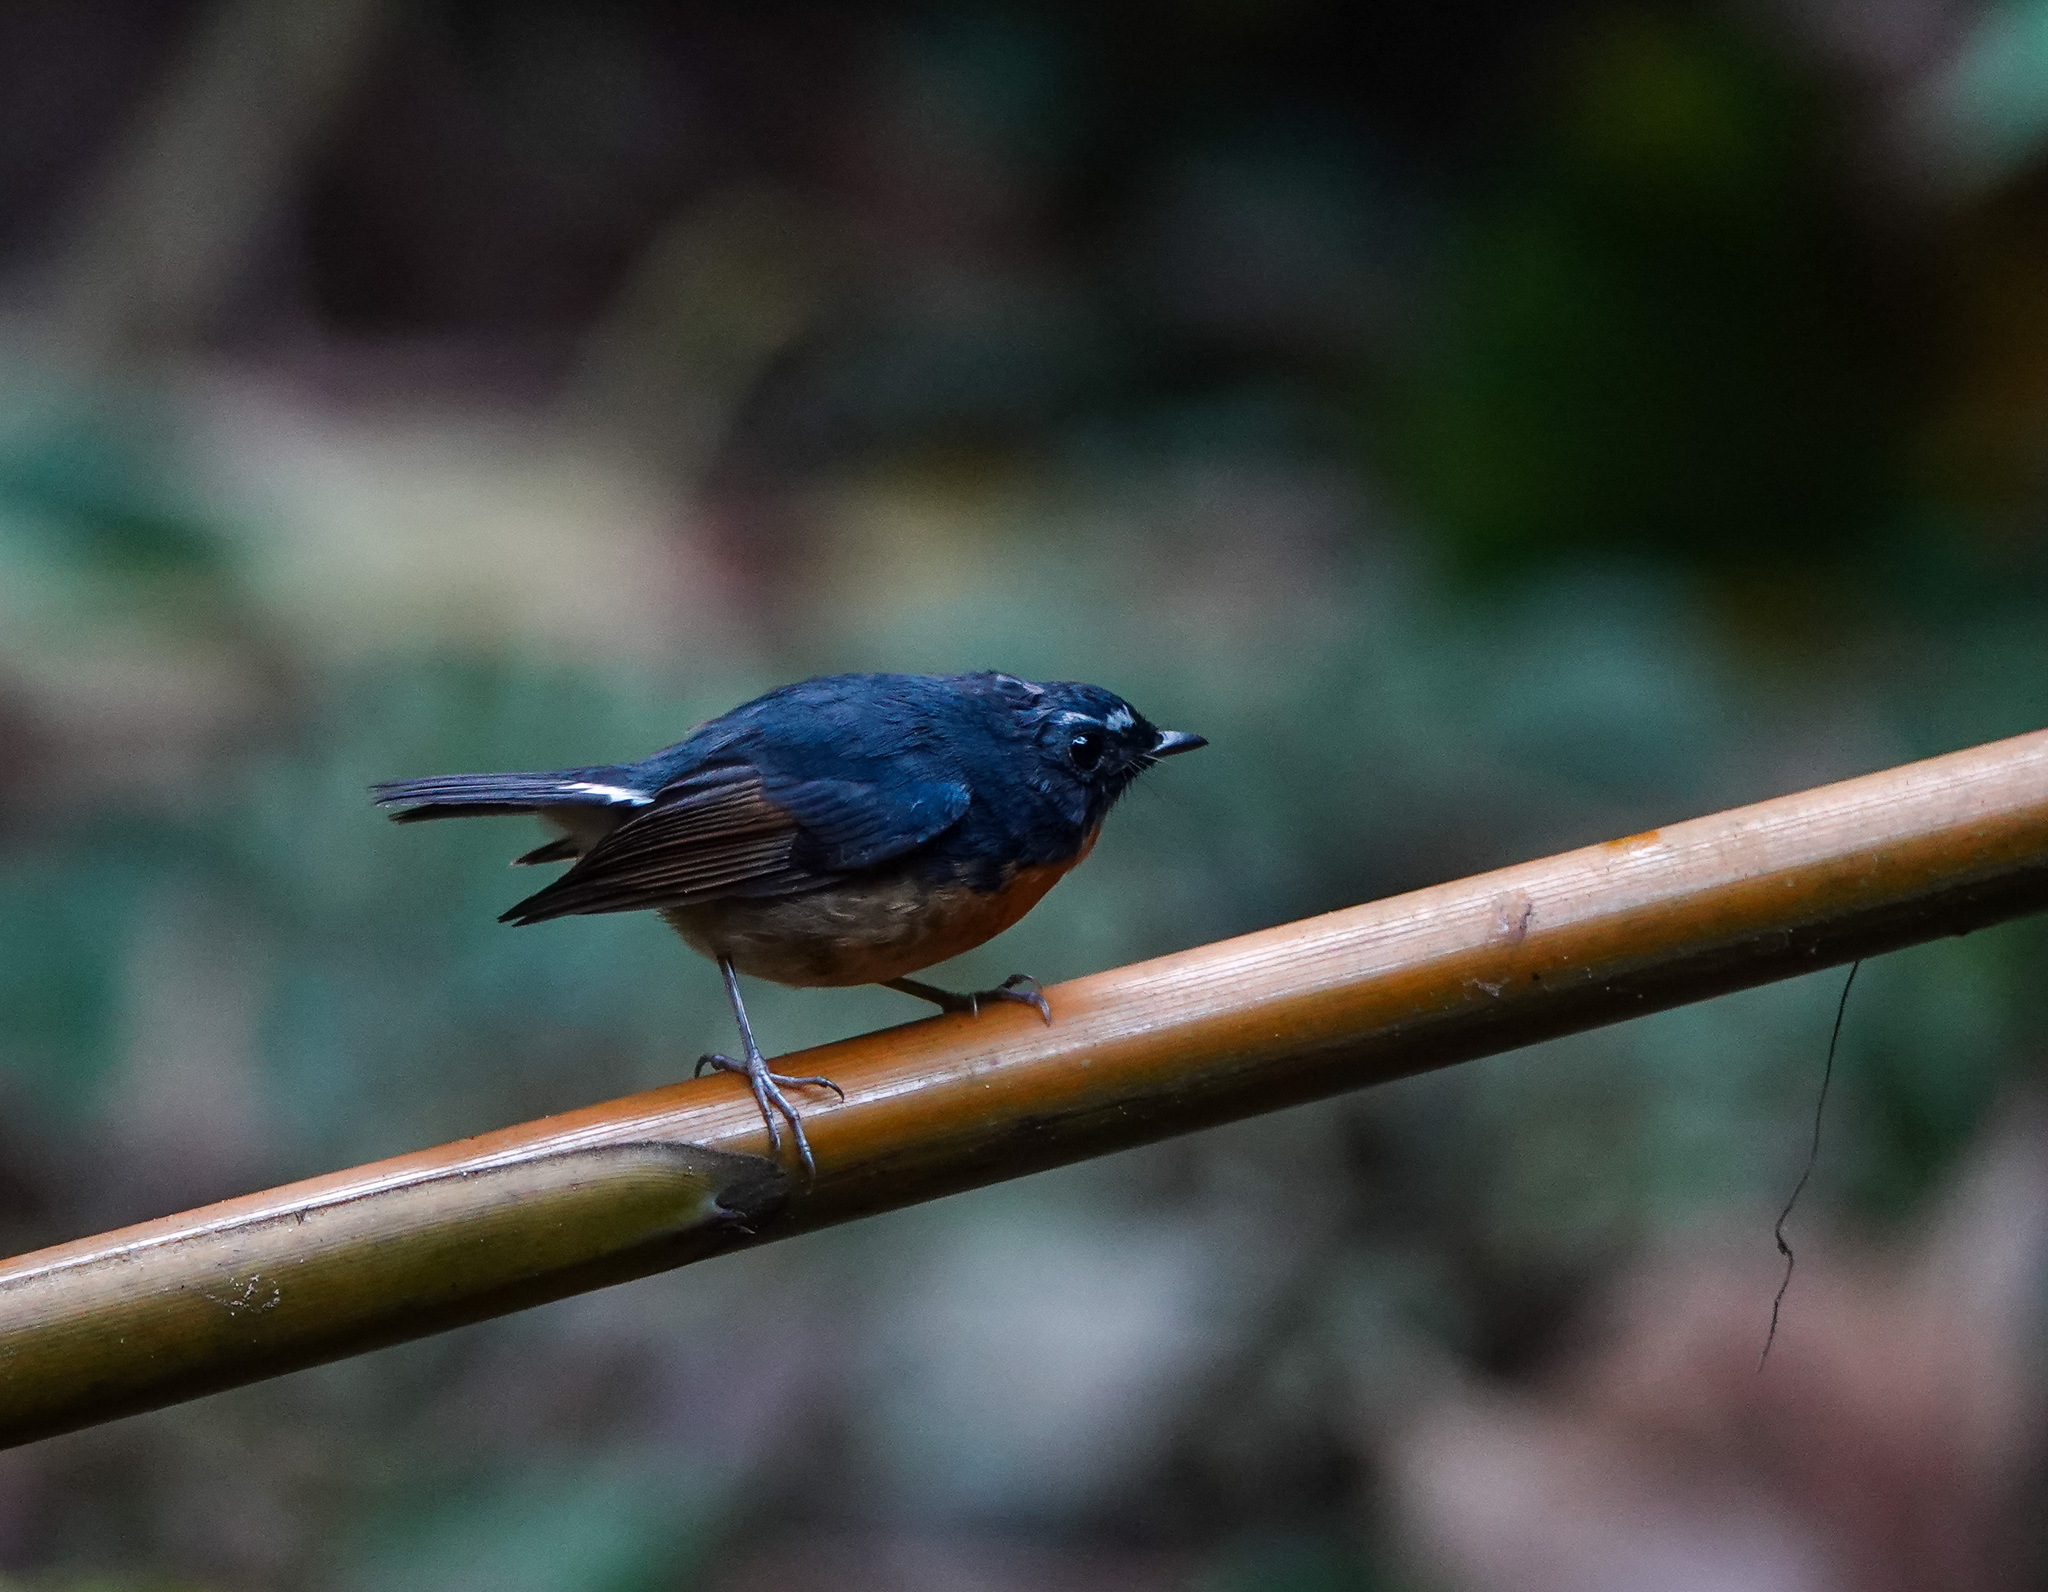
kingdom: Animalia
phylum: Chordata
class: Aves
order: Passeriformes
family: Muscicapidae
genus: Ficedula
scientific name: Ficedula hyperythra
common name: Snowy-browed flycatcher
